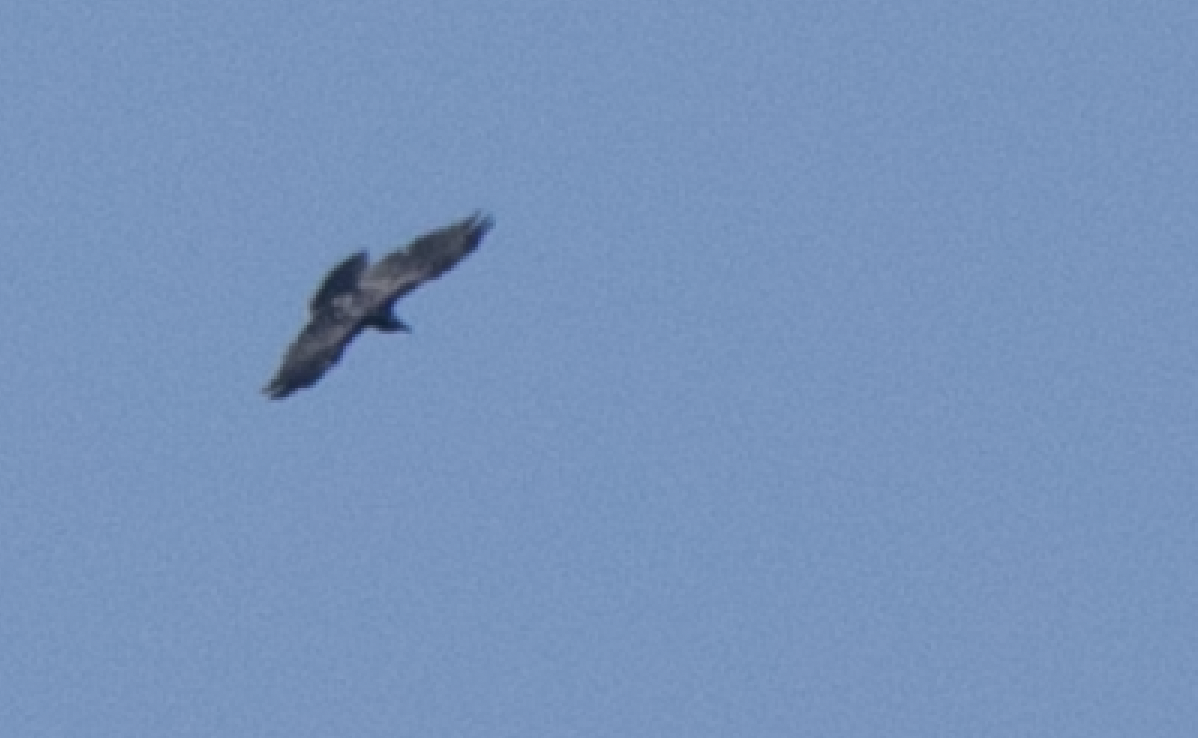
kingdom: Animalia
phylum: Chordata
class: Aves
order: Passeriformes
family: Corvidae
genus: Corvus
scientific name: Corvus corax
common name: Common raven
